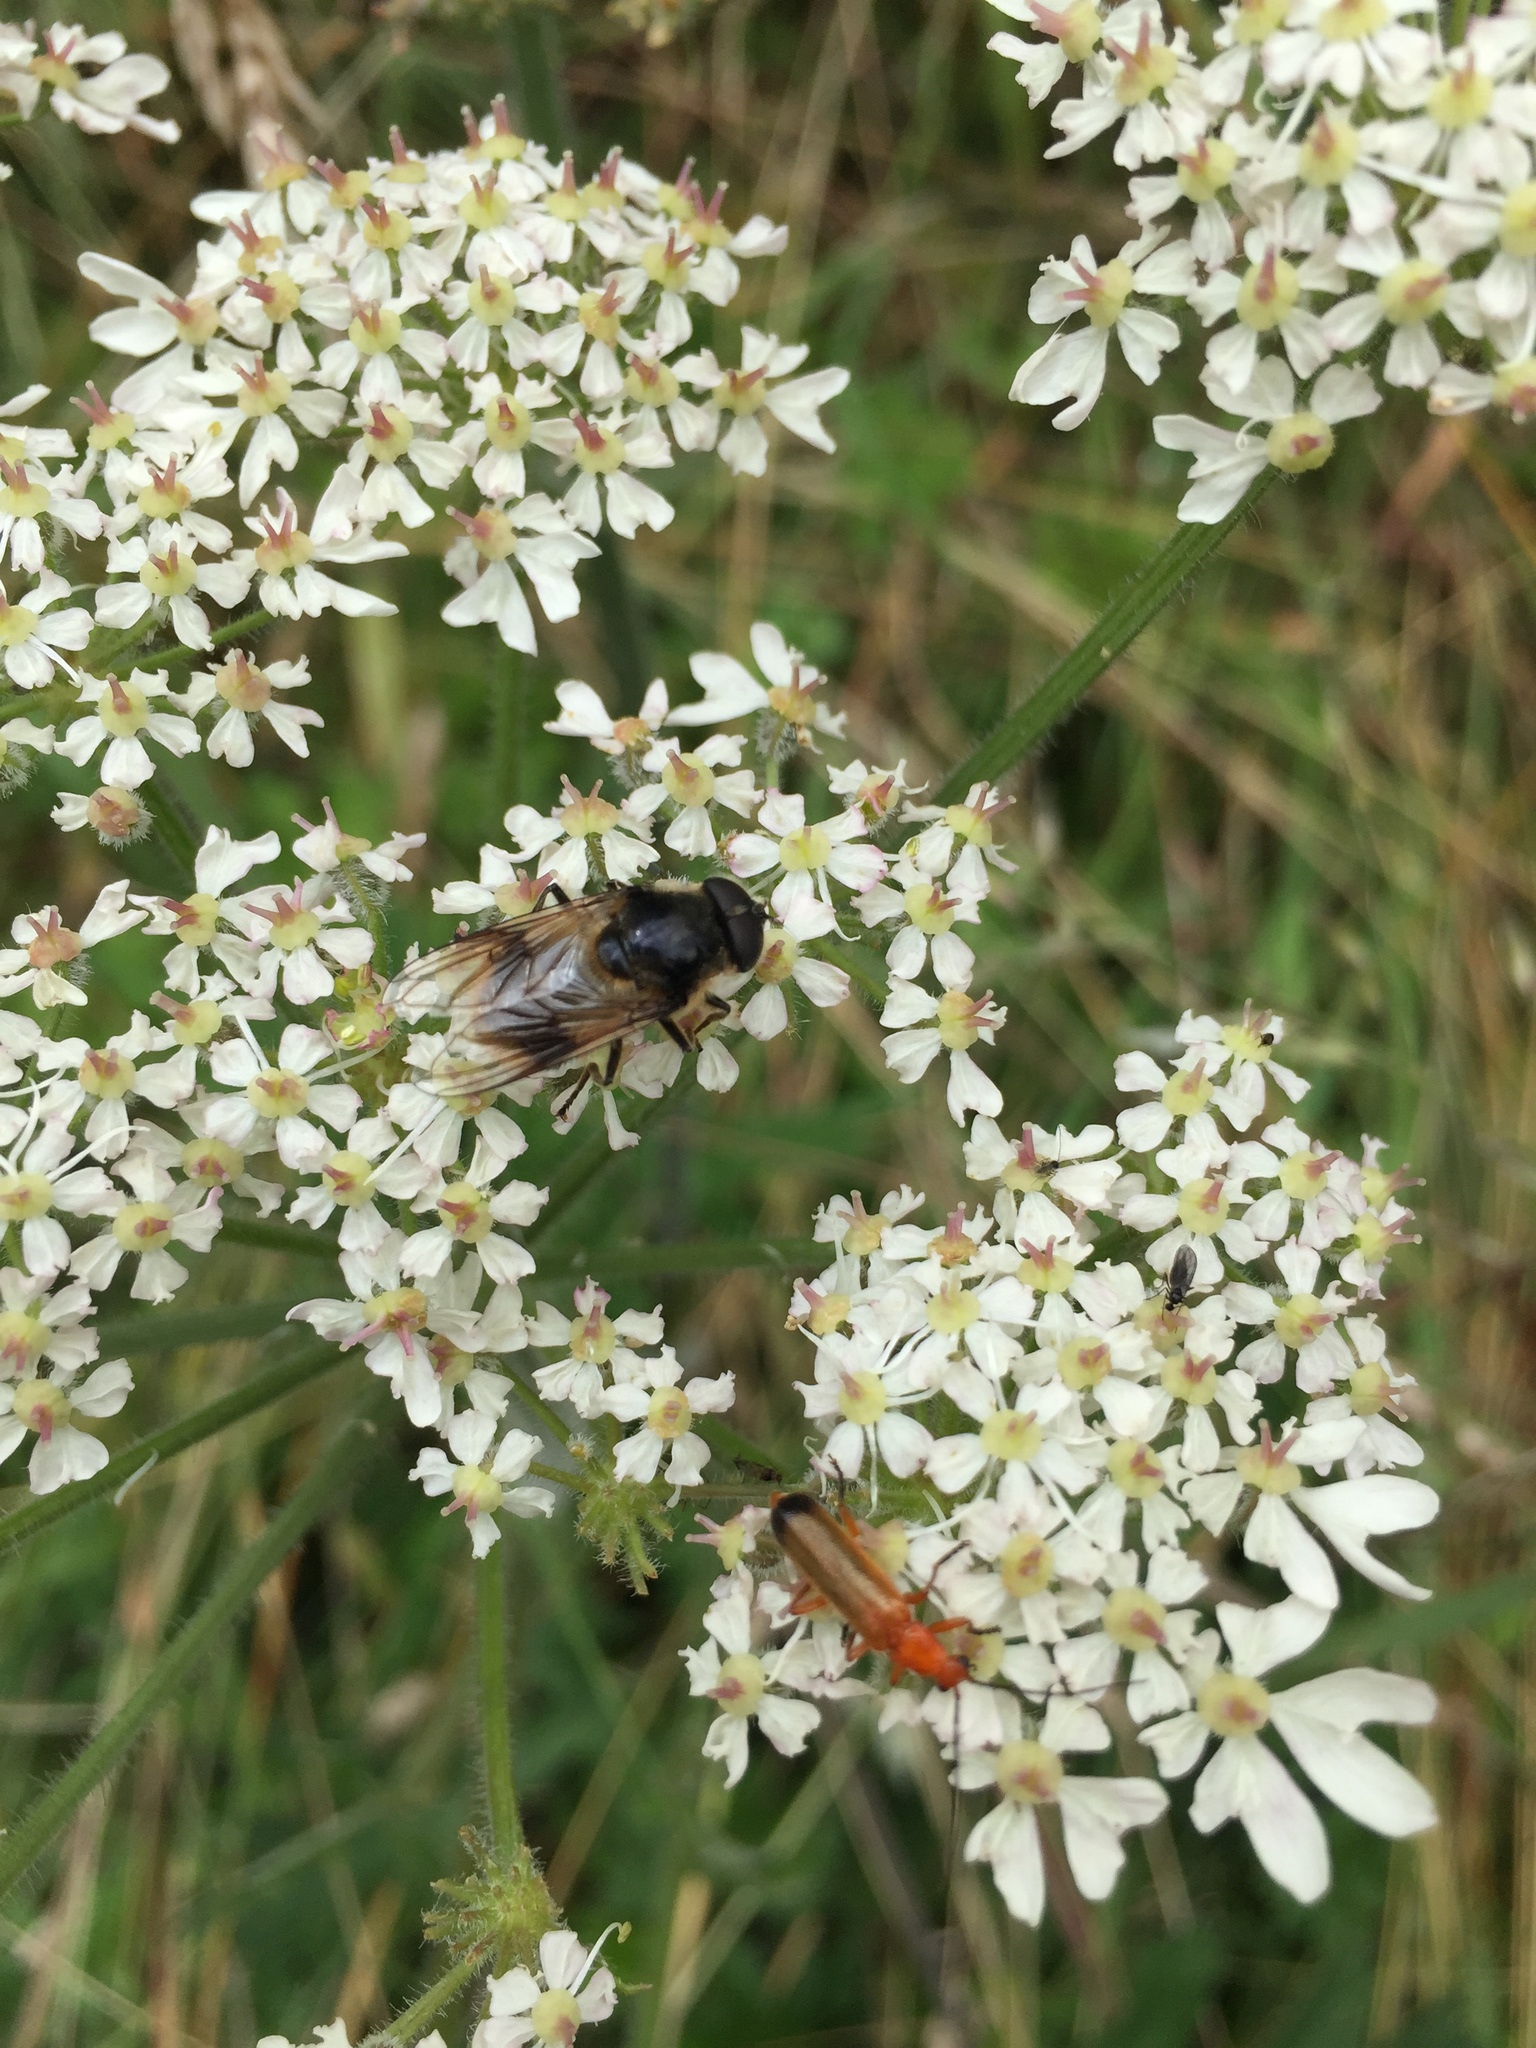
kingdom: Animalia
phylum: Arthropoda
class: Insecta
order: Diptera
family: Syrphidae
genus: Cheilosia
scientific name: Cheilosia illustrata
